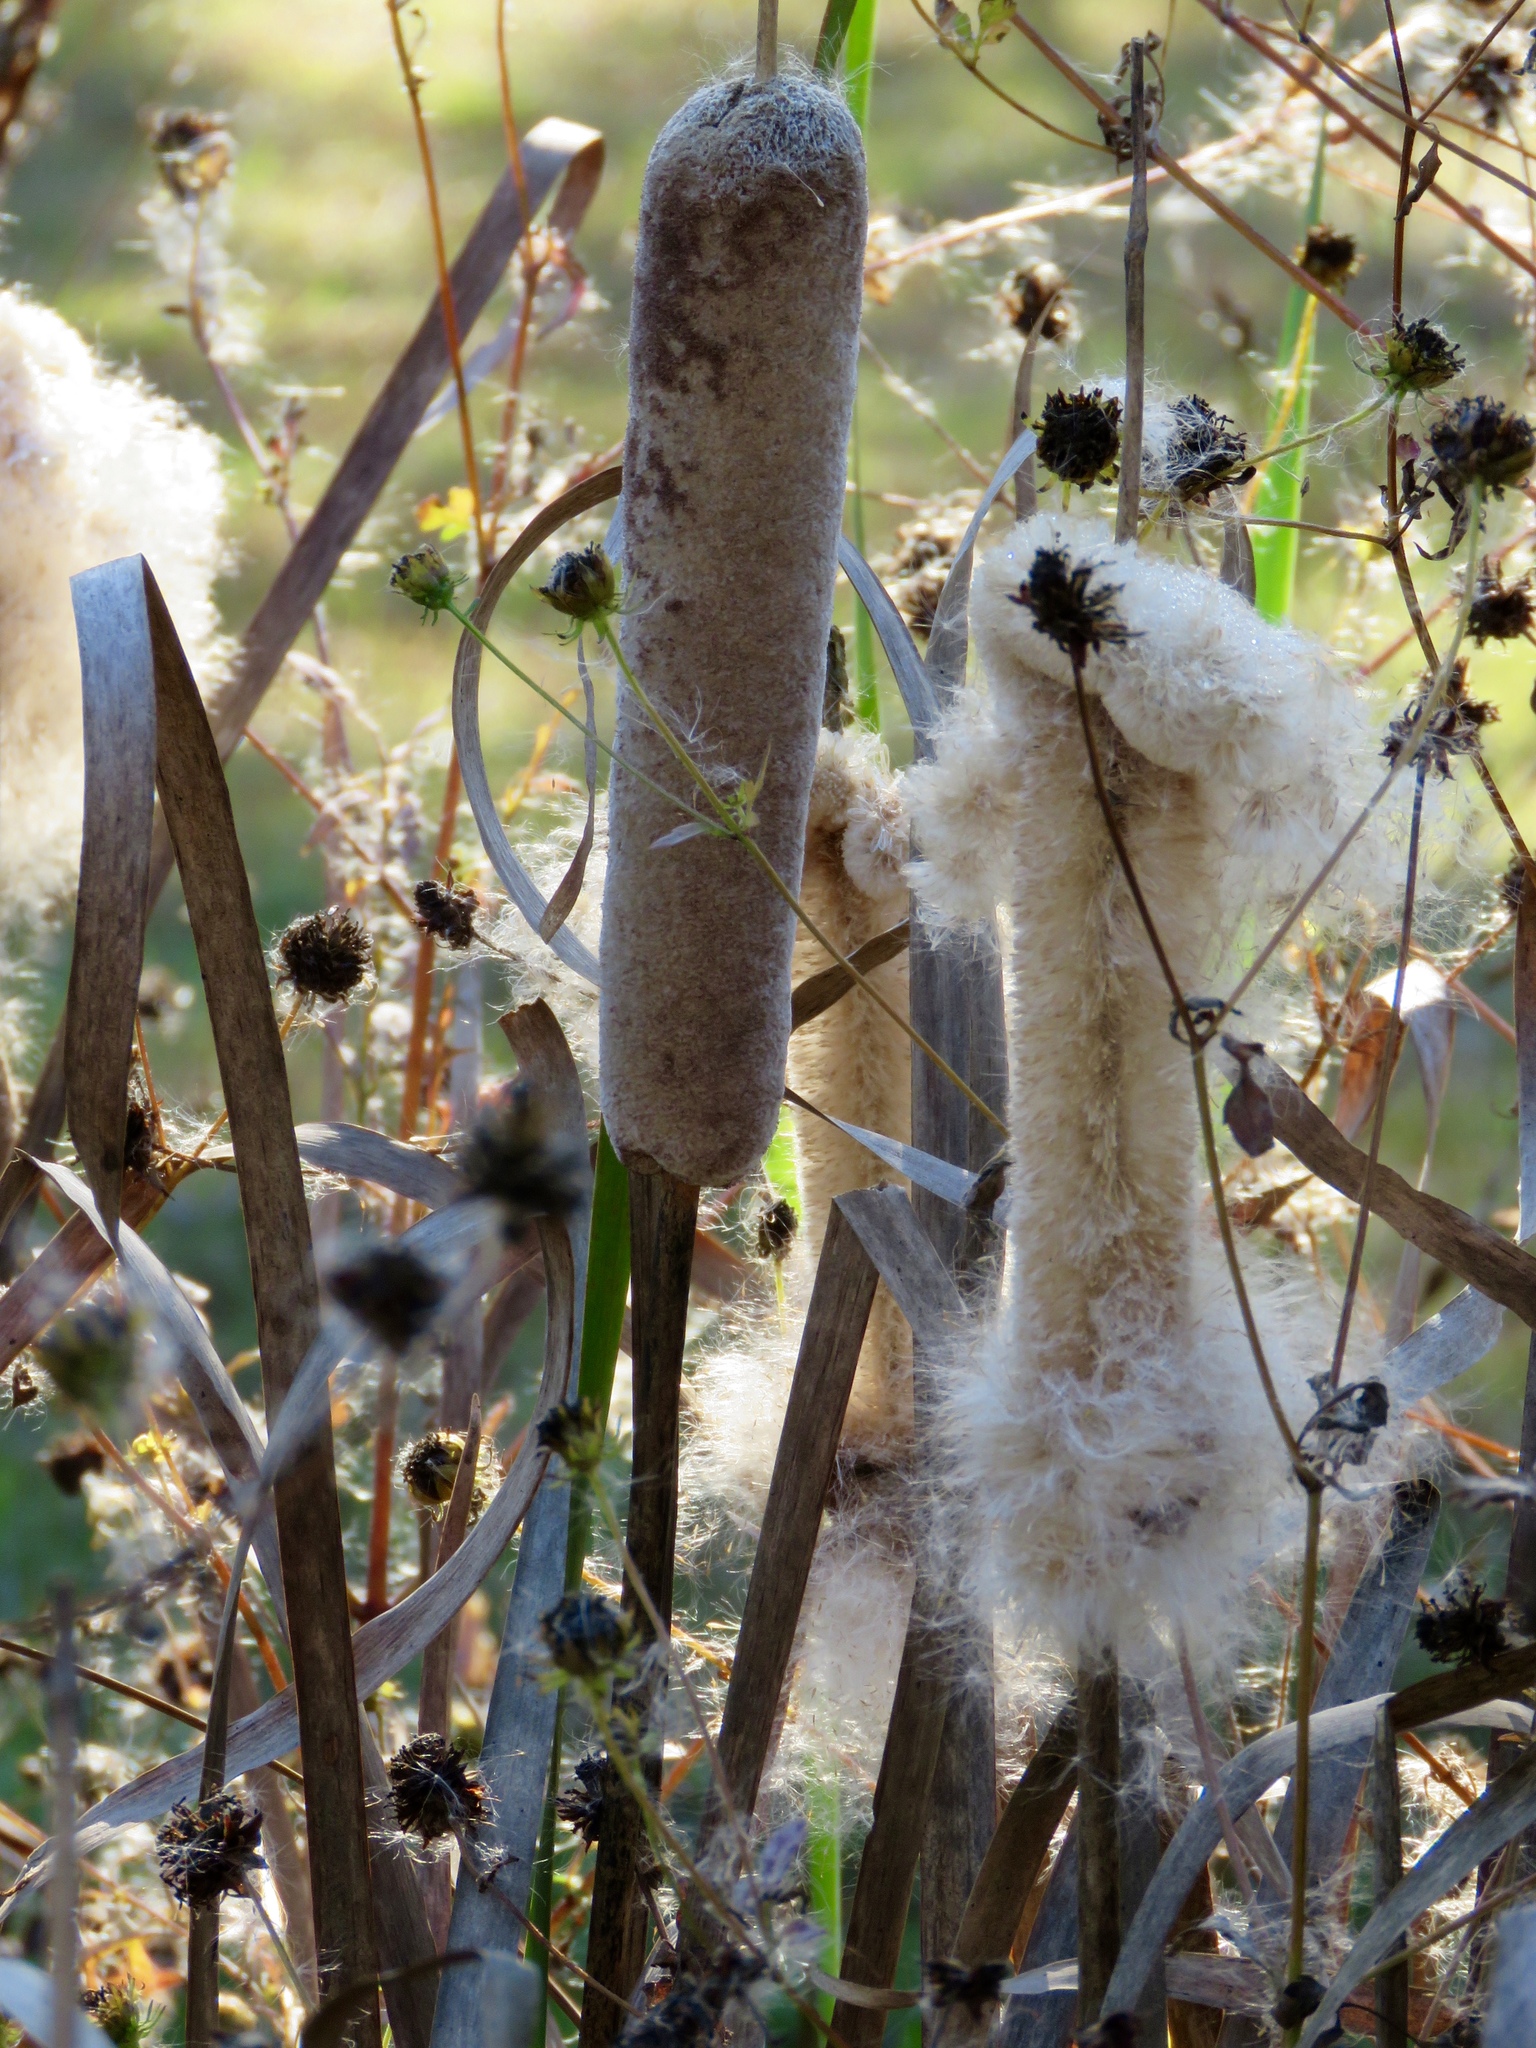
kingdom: Plantae
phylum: Tracheophyta
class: Liliopsida
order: Poales
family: Typhaceae
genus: Typha
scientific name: Typha latifolia
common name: Broadleaf cattail
